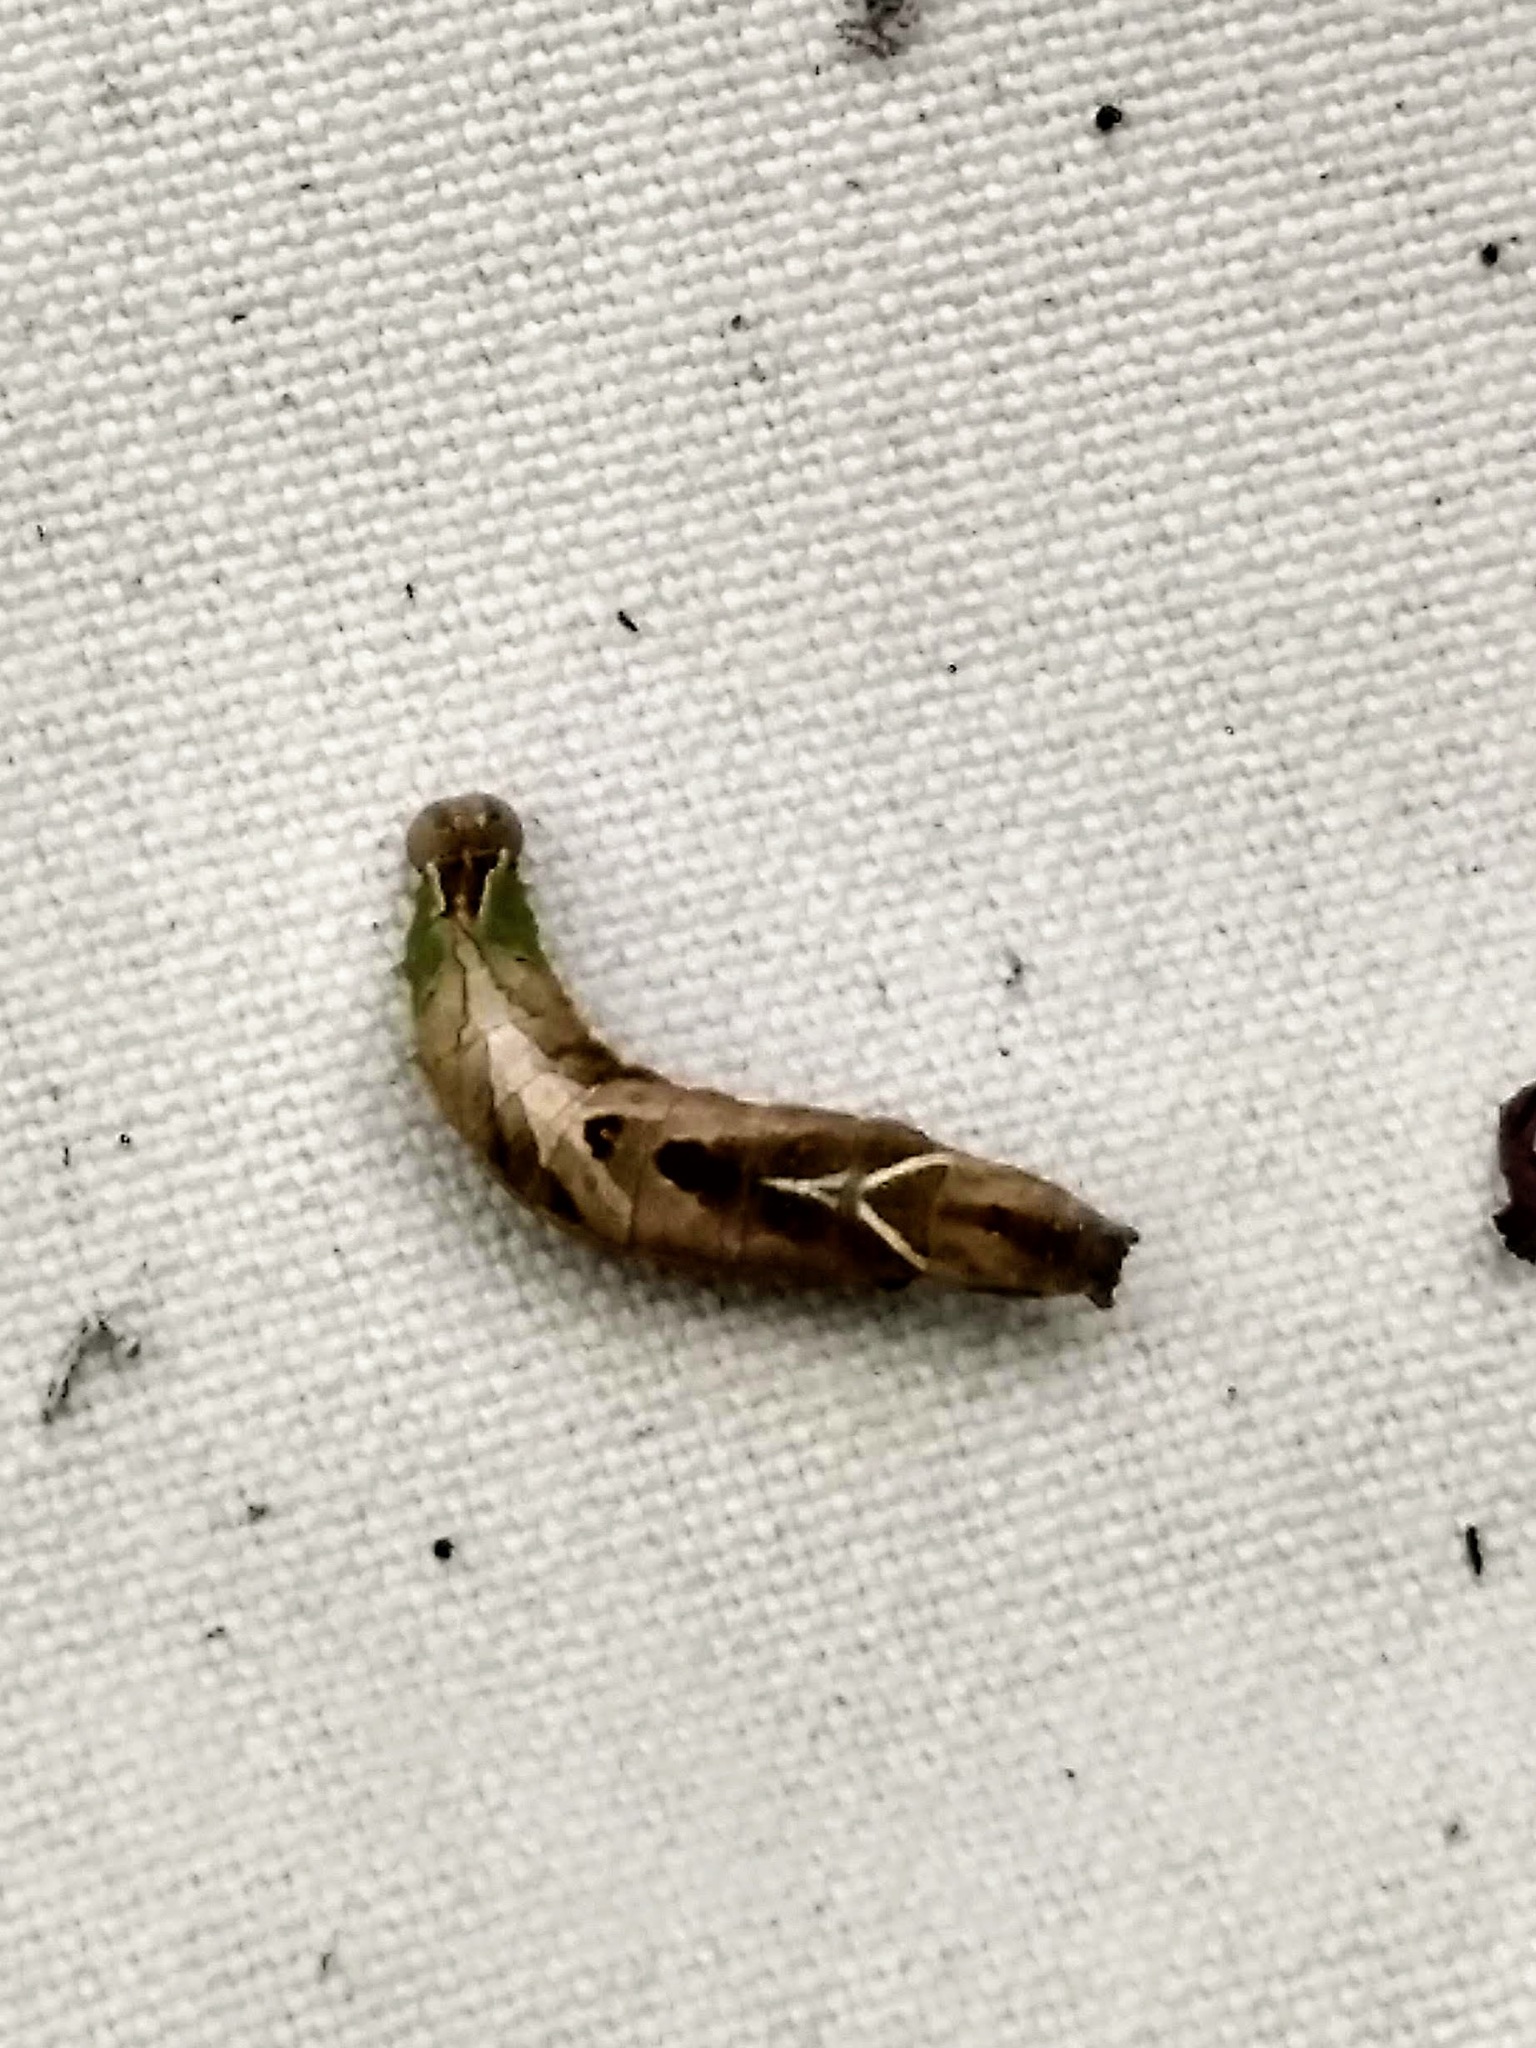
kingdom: Animalia
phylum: Arthropoda
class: Insecta
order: Lepidoptera
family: Notodontidae
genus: Schizura
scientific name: Schizura
